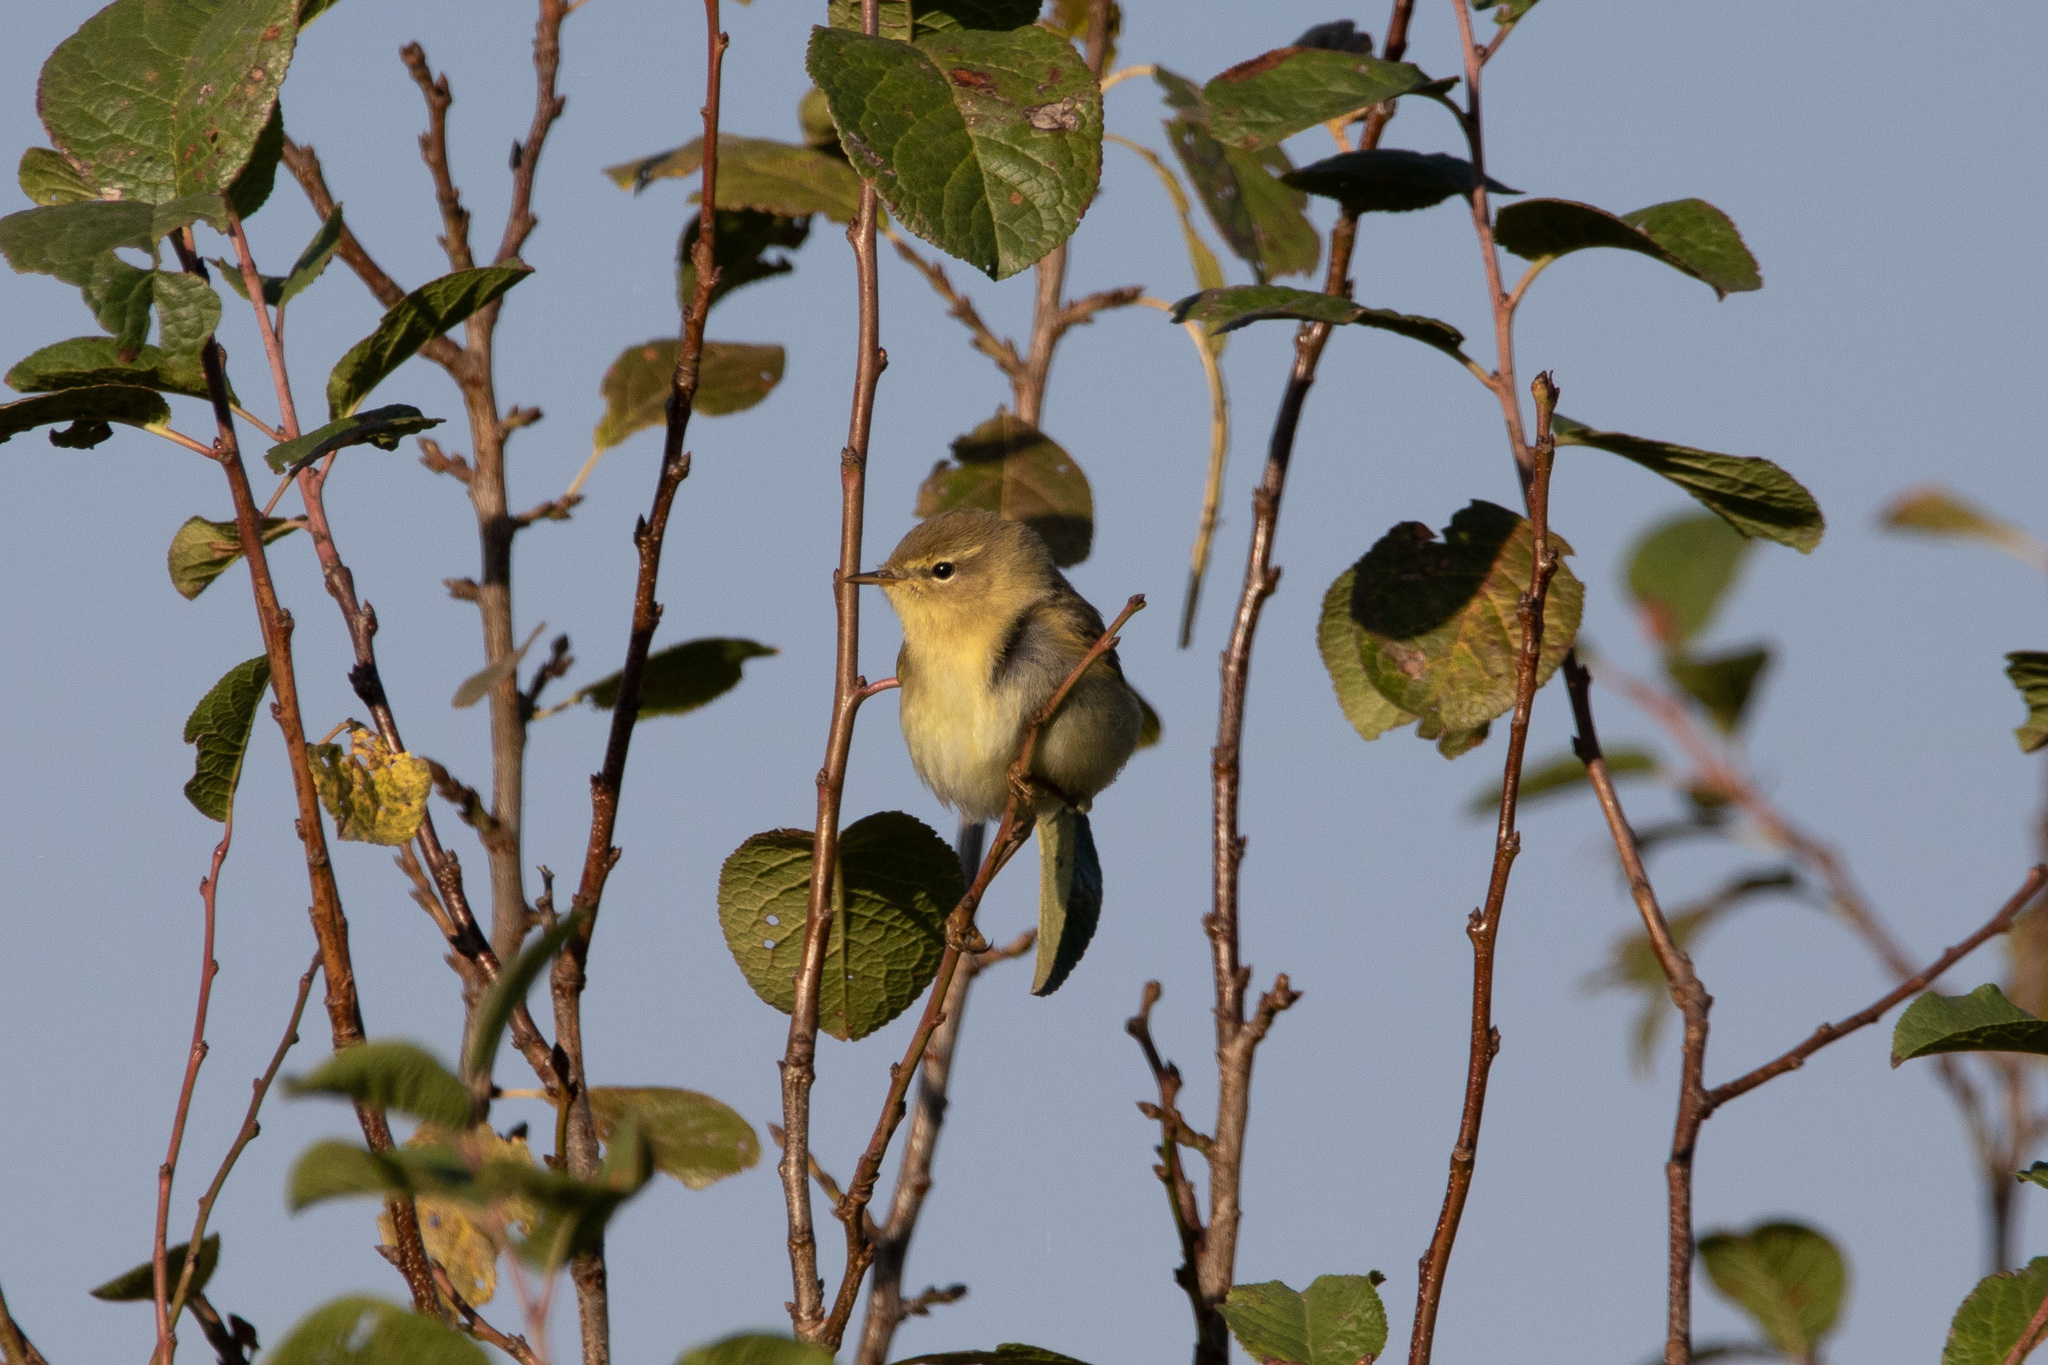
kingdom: Animalia
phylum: Chordata
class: Aves
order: Passeriformes
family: Phylloscopidae
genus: Phylloscopus
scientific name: Phylloscopus trochilus
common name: Willow warbler
